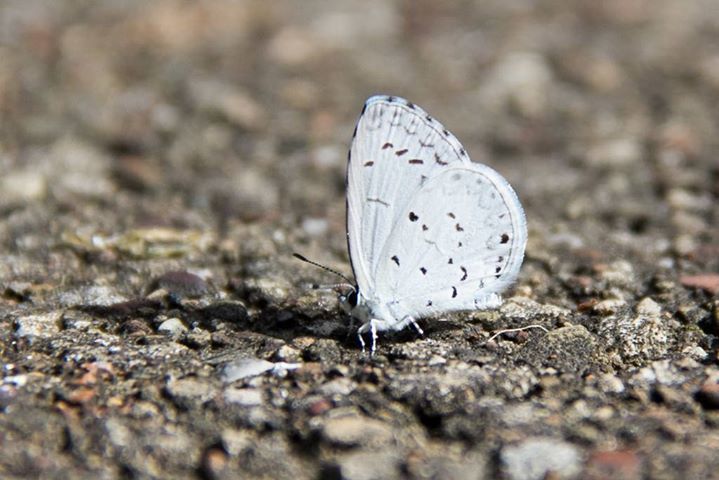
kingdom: Animalia
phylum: Arthropoda
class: Insecta
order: Lepidoptera
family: Lycaenidae
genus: Cyaniris
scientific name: Cyaniris neglecta
